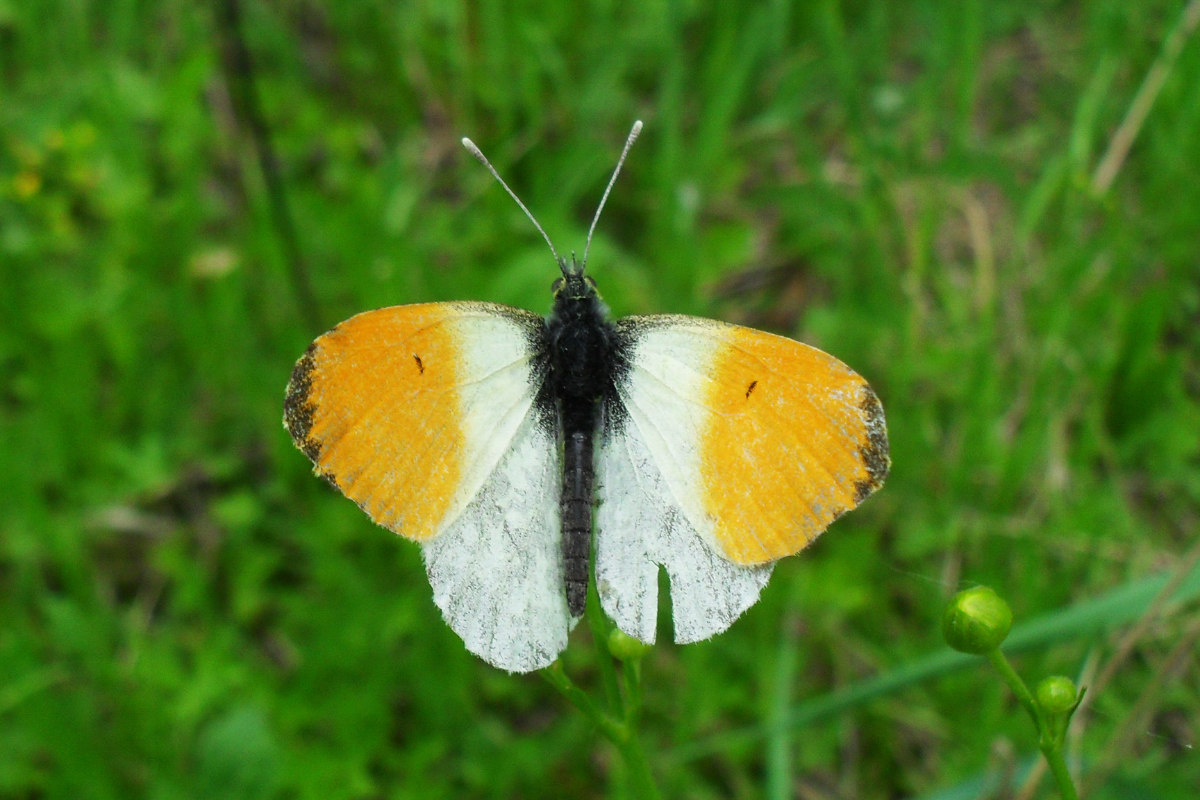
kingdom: Animalia
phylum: Arthropoda
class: Insecta
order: Lepidoptera
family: Pieridae
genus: Anthocharis
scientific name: Anthocharis cardamines
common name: Orange-tip
